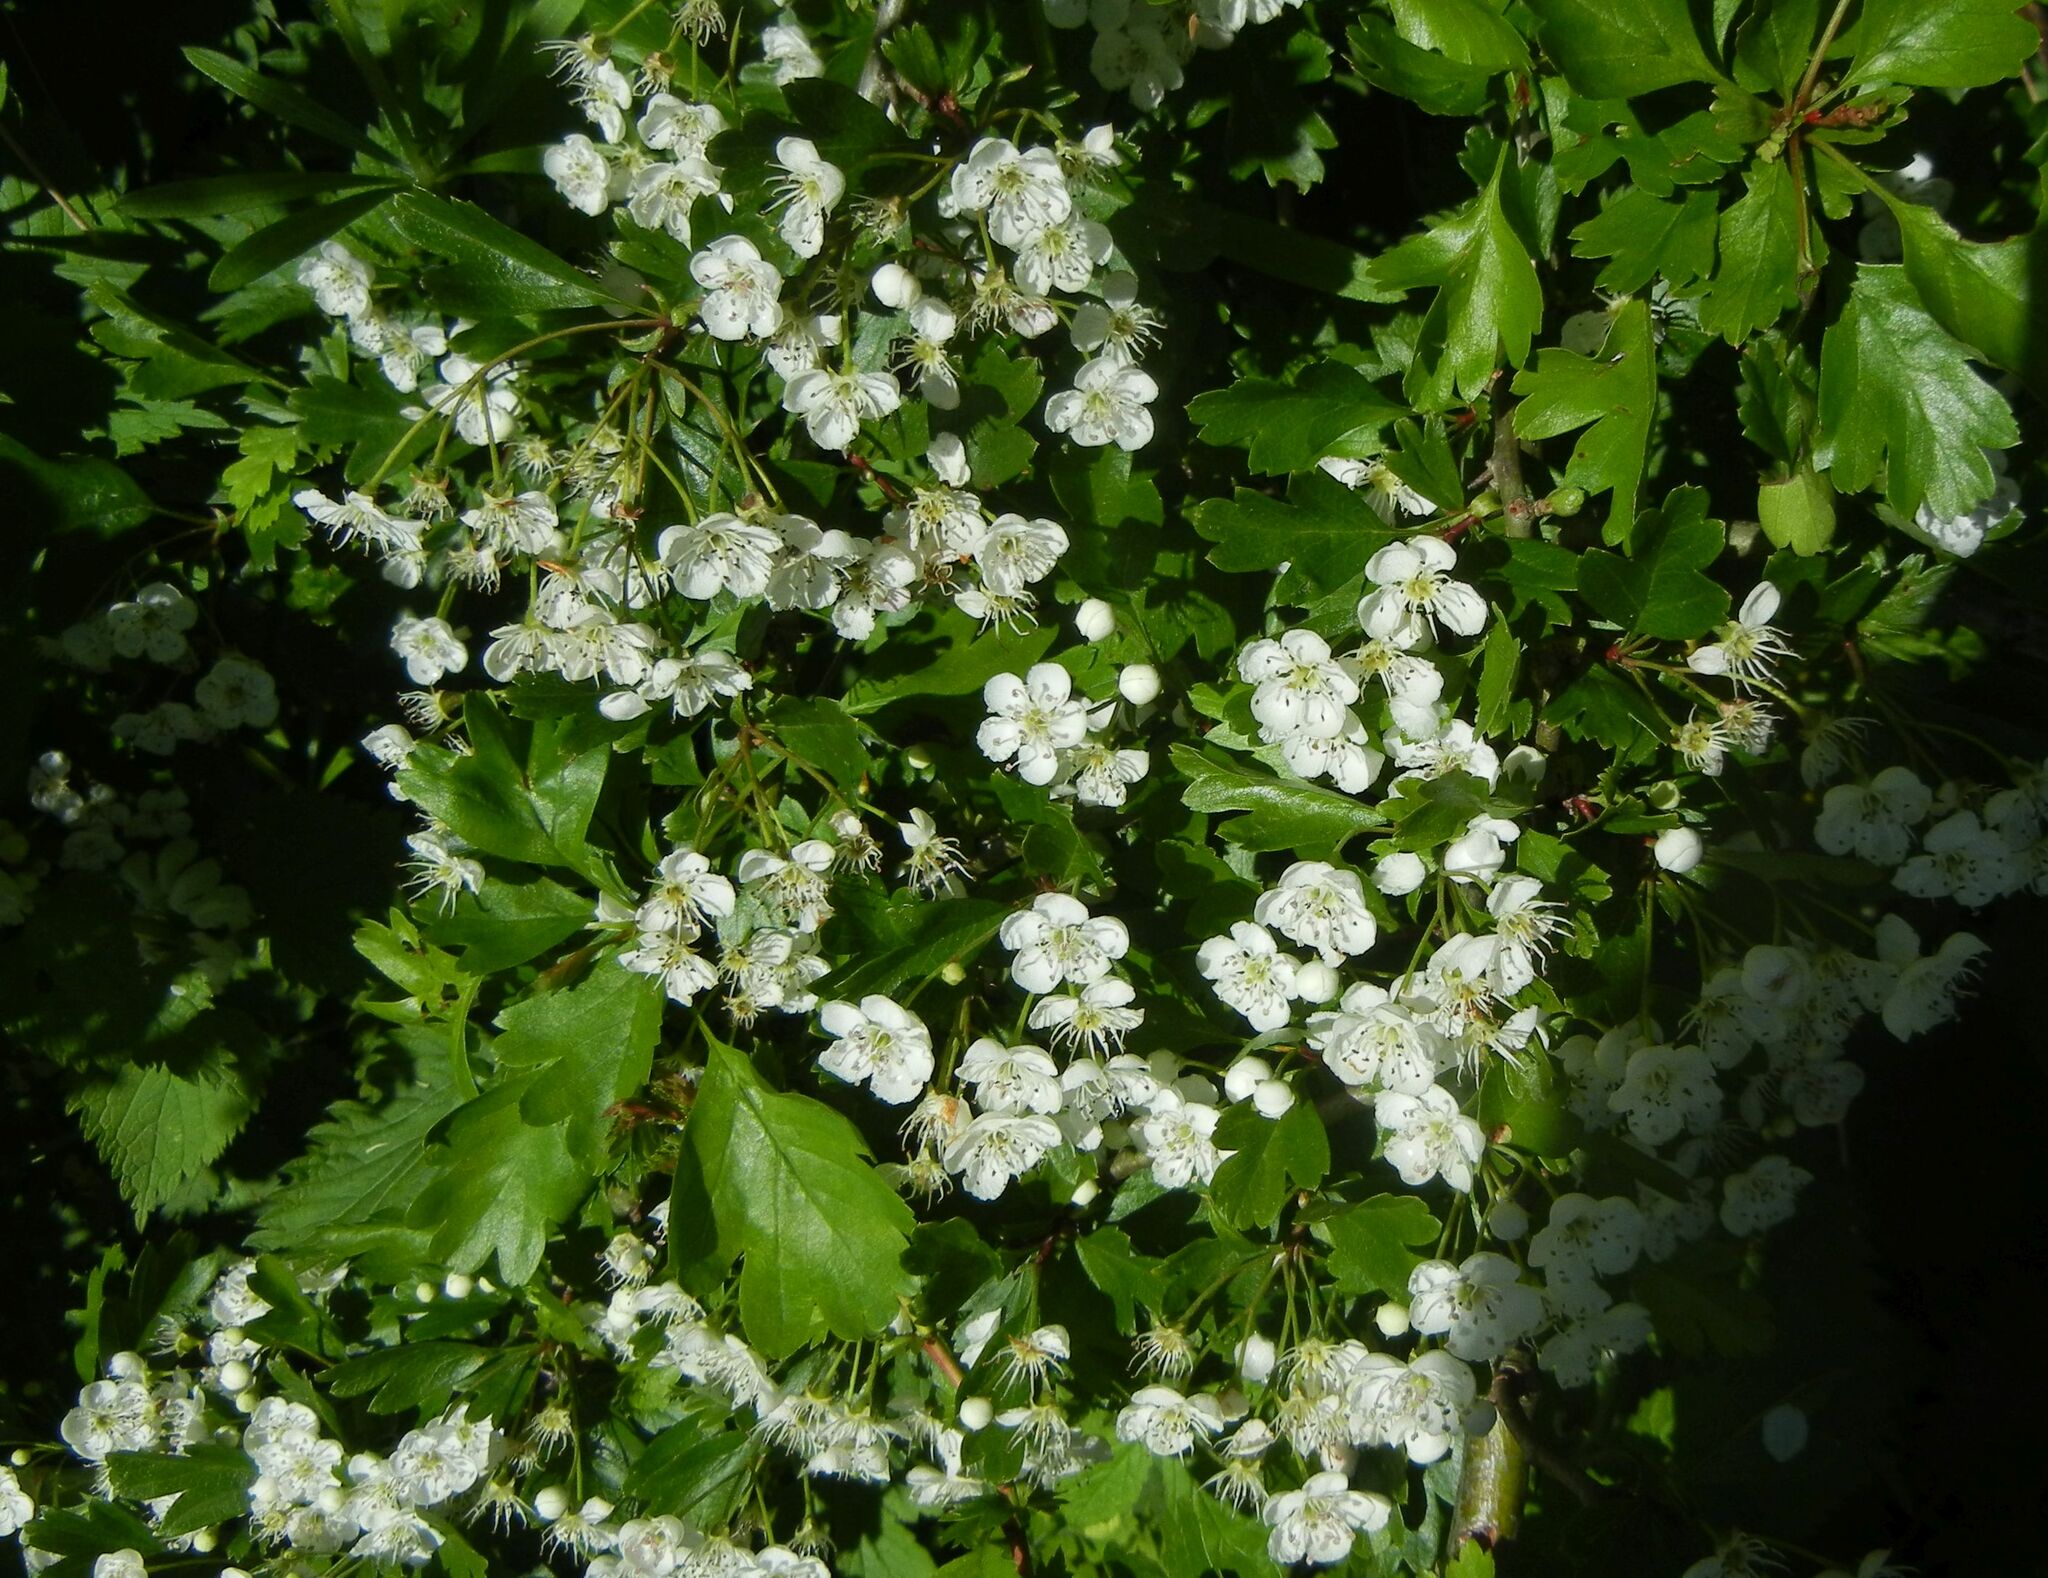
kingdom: Plantae
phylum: Tracheophyta
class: Magnoliopsida
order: Rosales
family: Rosaceae
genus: Crataegus
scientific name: Crataegus monogyna
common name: Hawthorn
